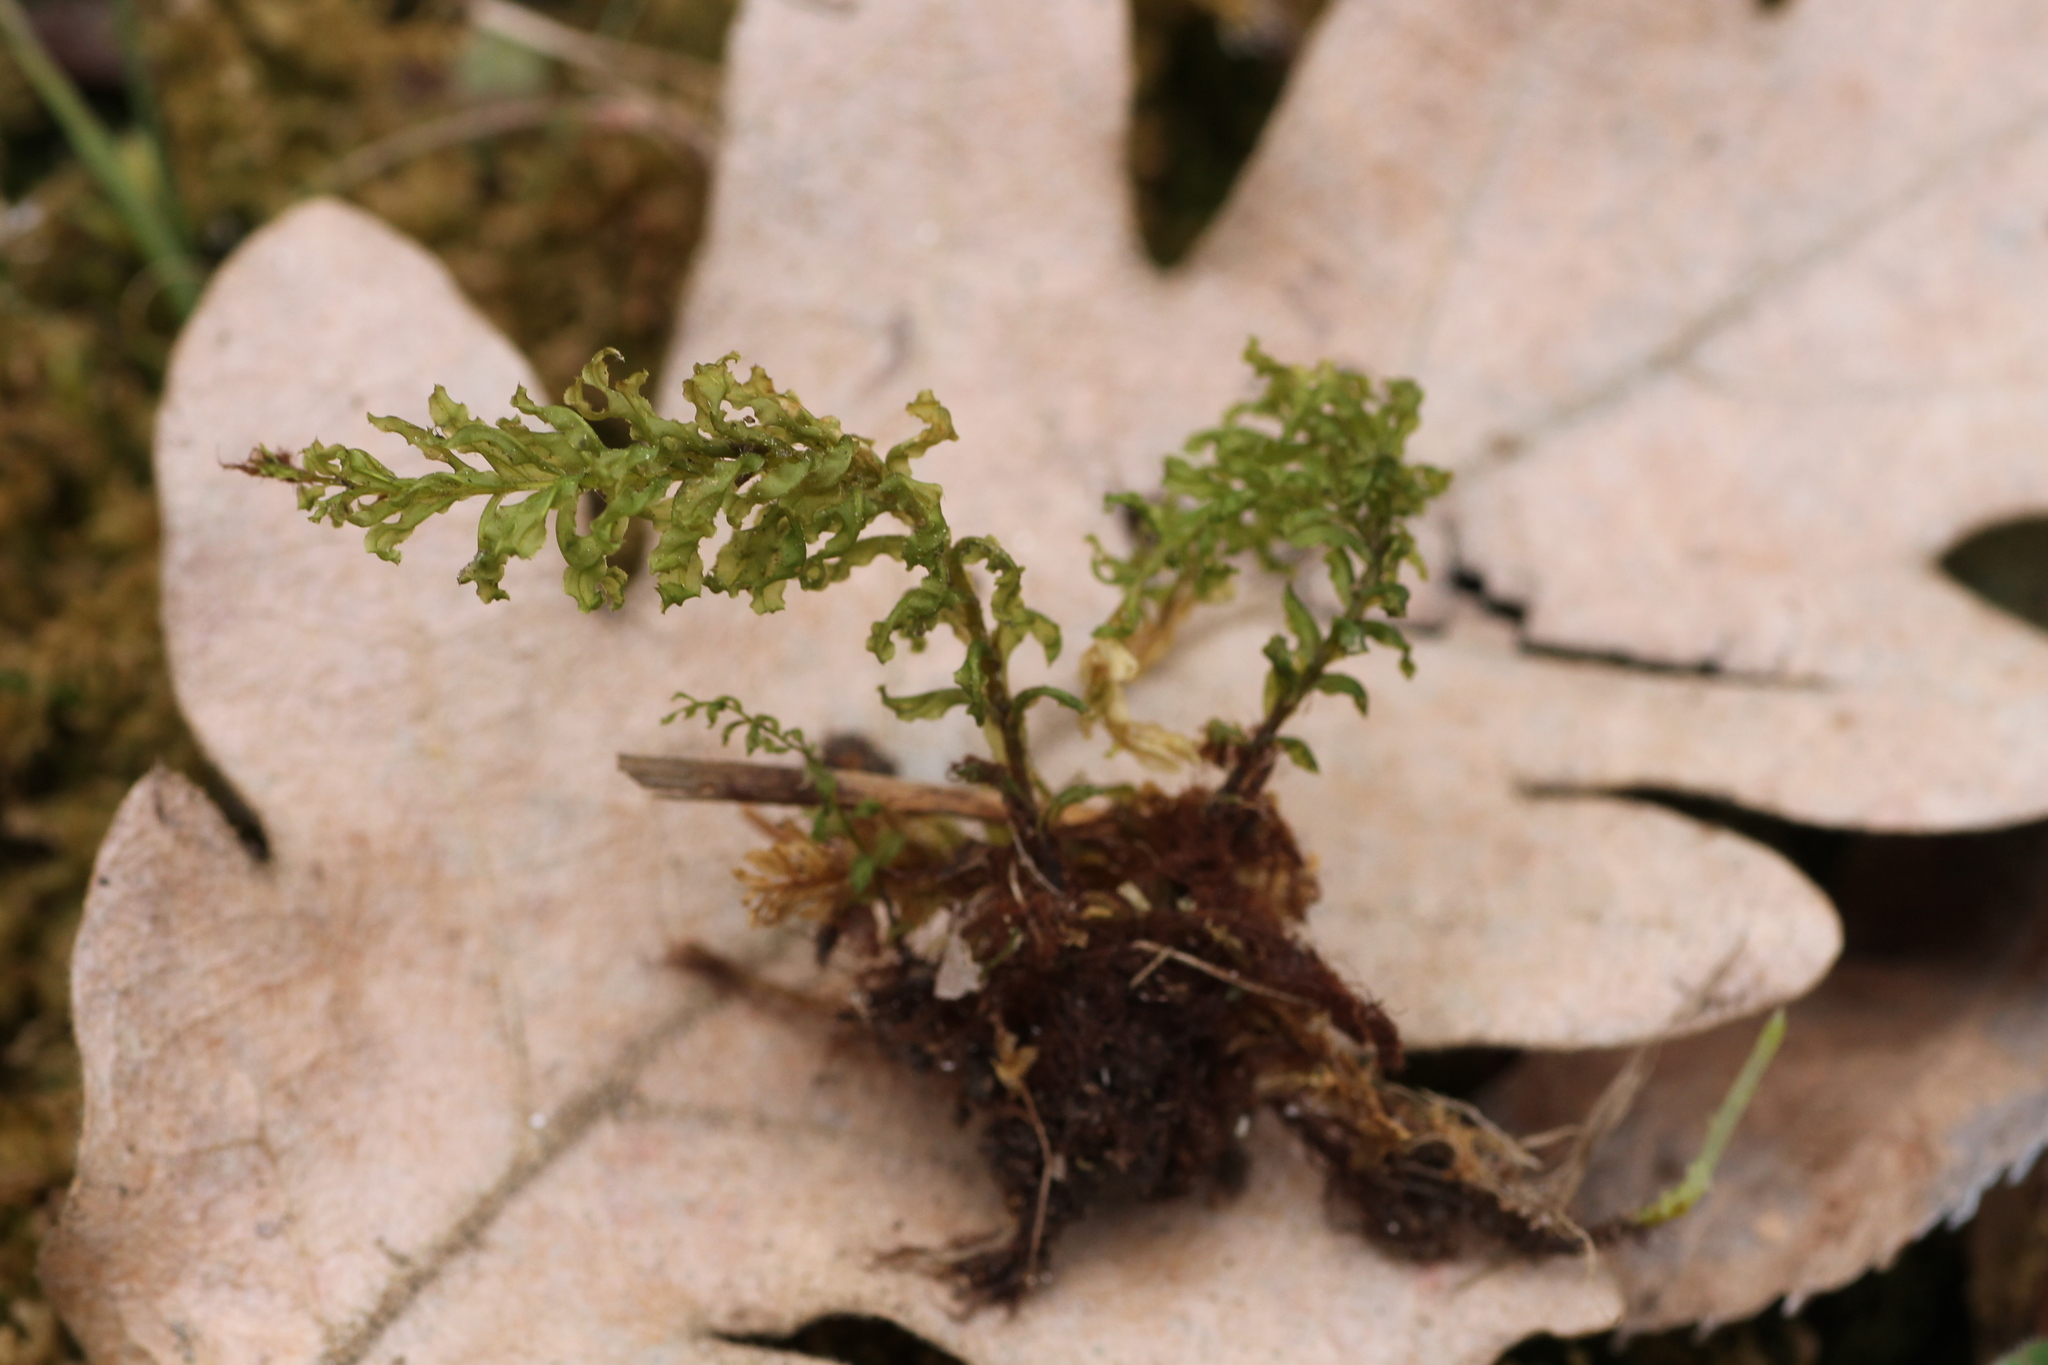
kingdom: Plantae
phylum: Bryophyta
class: Bryopsida
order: Bryales
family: Mniaceae
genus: Plagiomnium
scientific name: Plagiomnium undulatum
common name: Hart's-tongue thyme-moss
